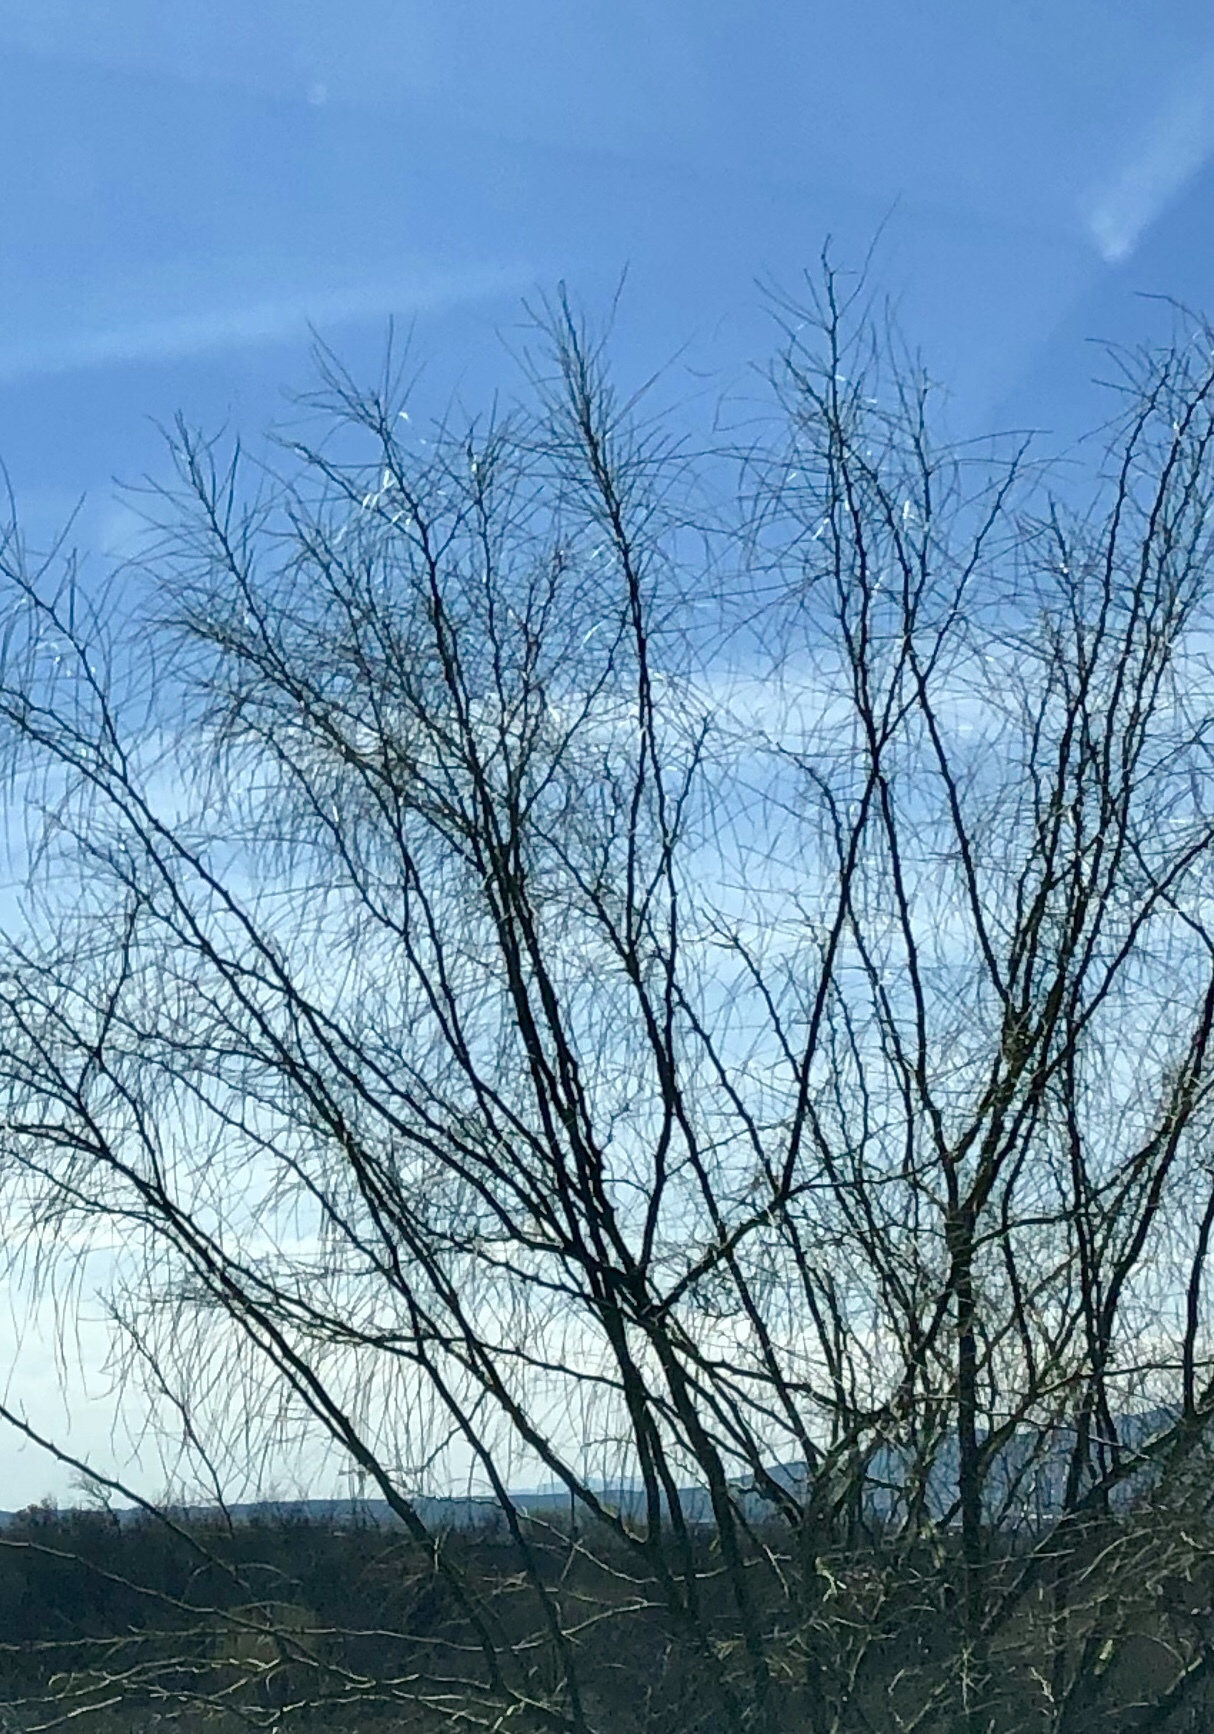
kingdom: Plantae
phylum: Tracheophyta
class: Magnoliopsida
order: Fabales
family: Fabaceae
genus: Parkinsonia
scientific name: Parkinsonia aculeata
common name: Jerusalem thorn
